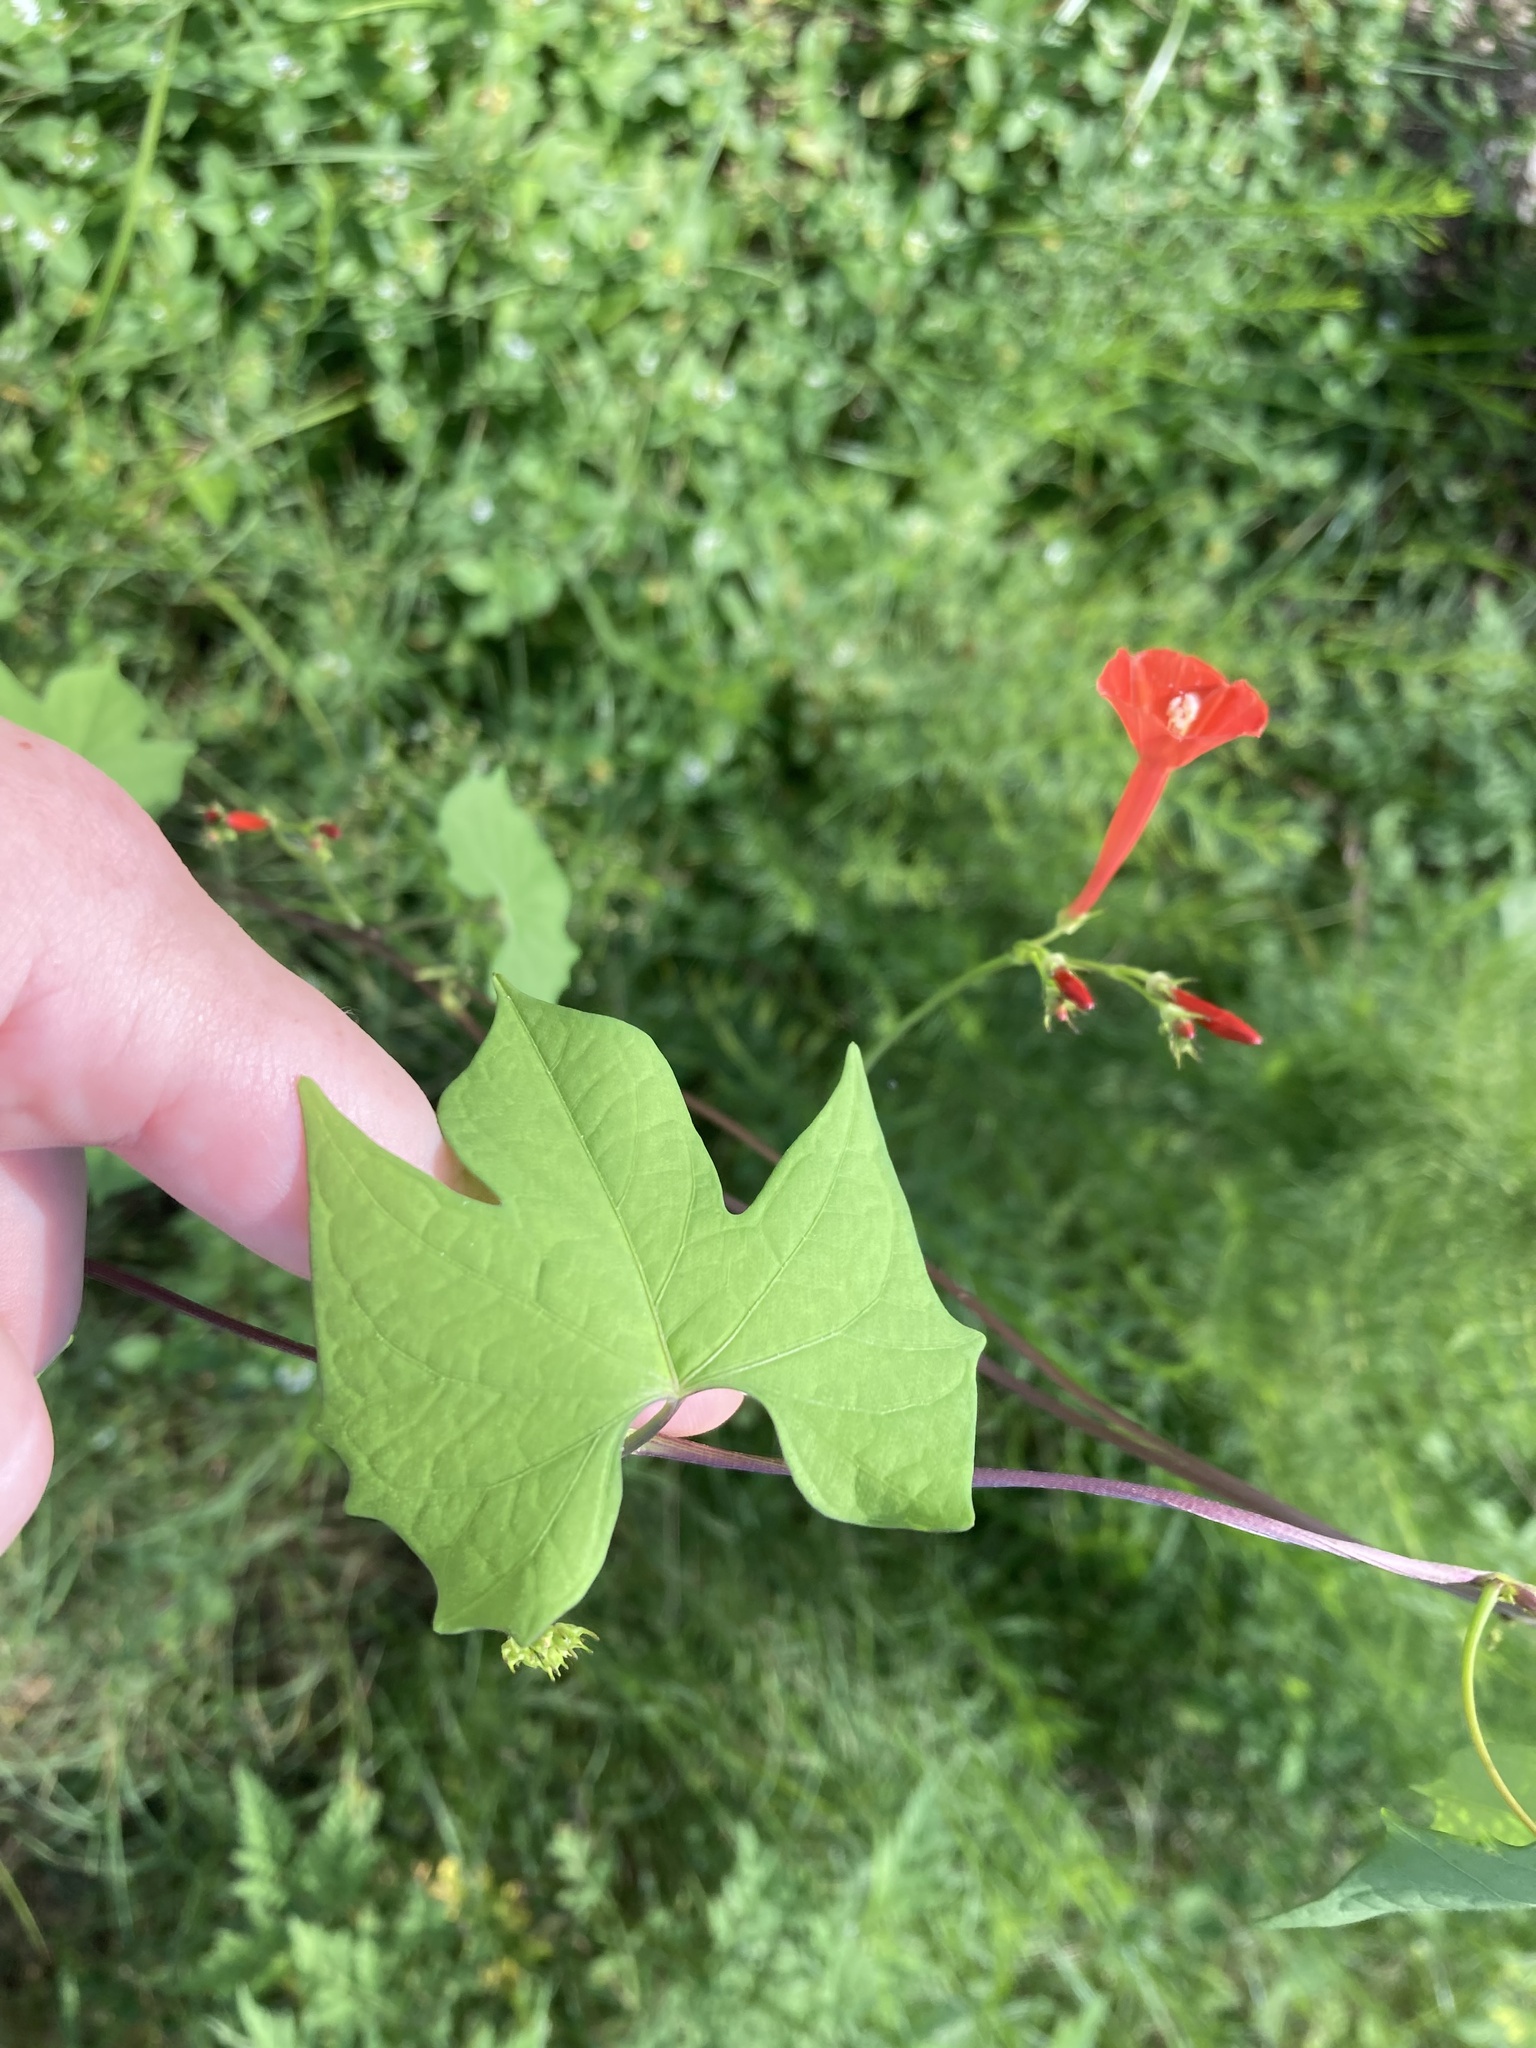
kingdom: Plantae
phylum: Tracheophyta
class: Magnoliopsida
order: Solanales
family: Convolvulaceae
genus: Ipomoea
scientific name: Ipomoea hederifolia
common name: Ivy-leaf morning-glory
